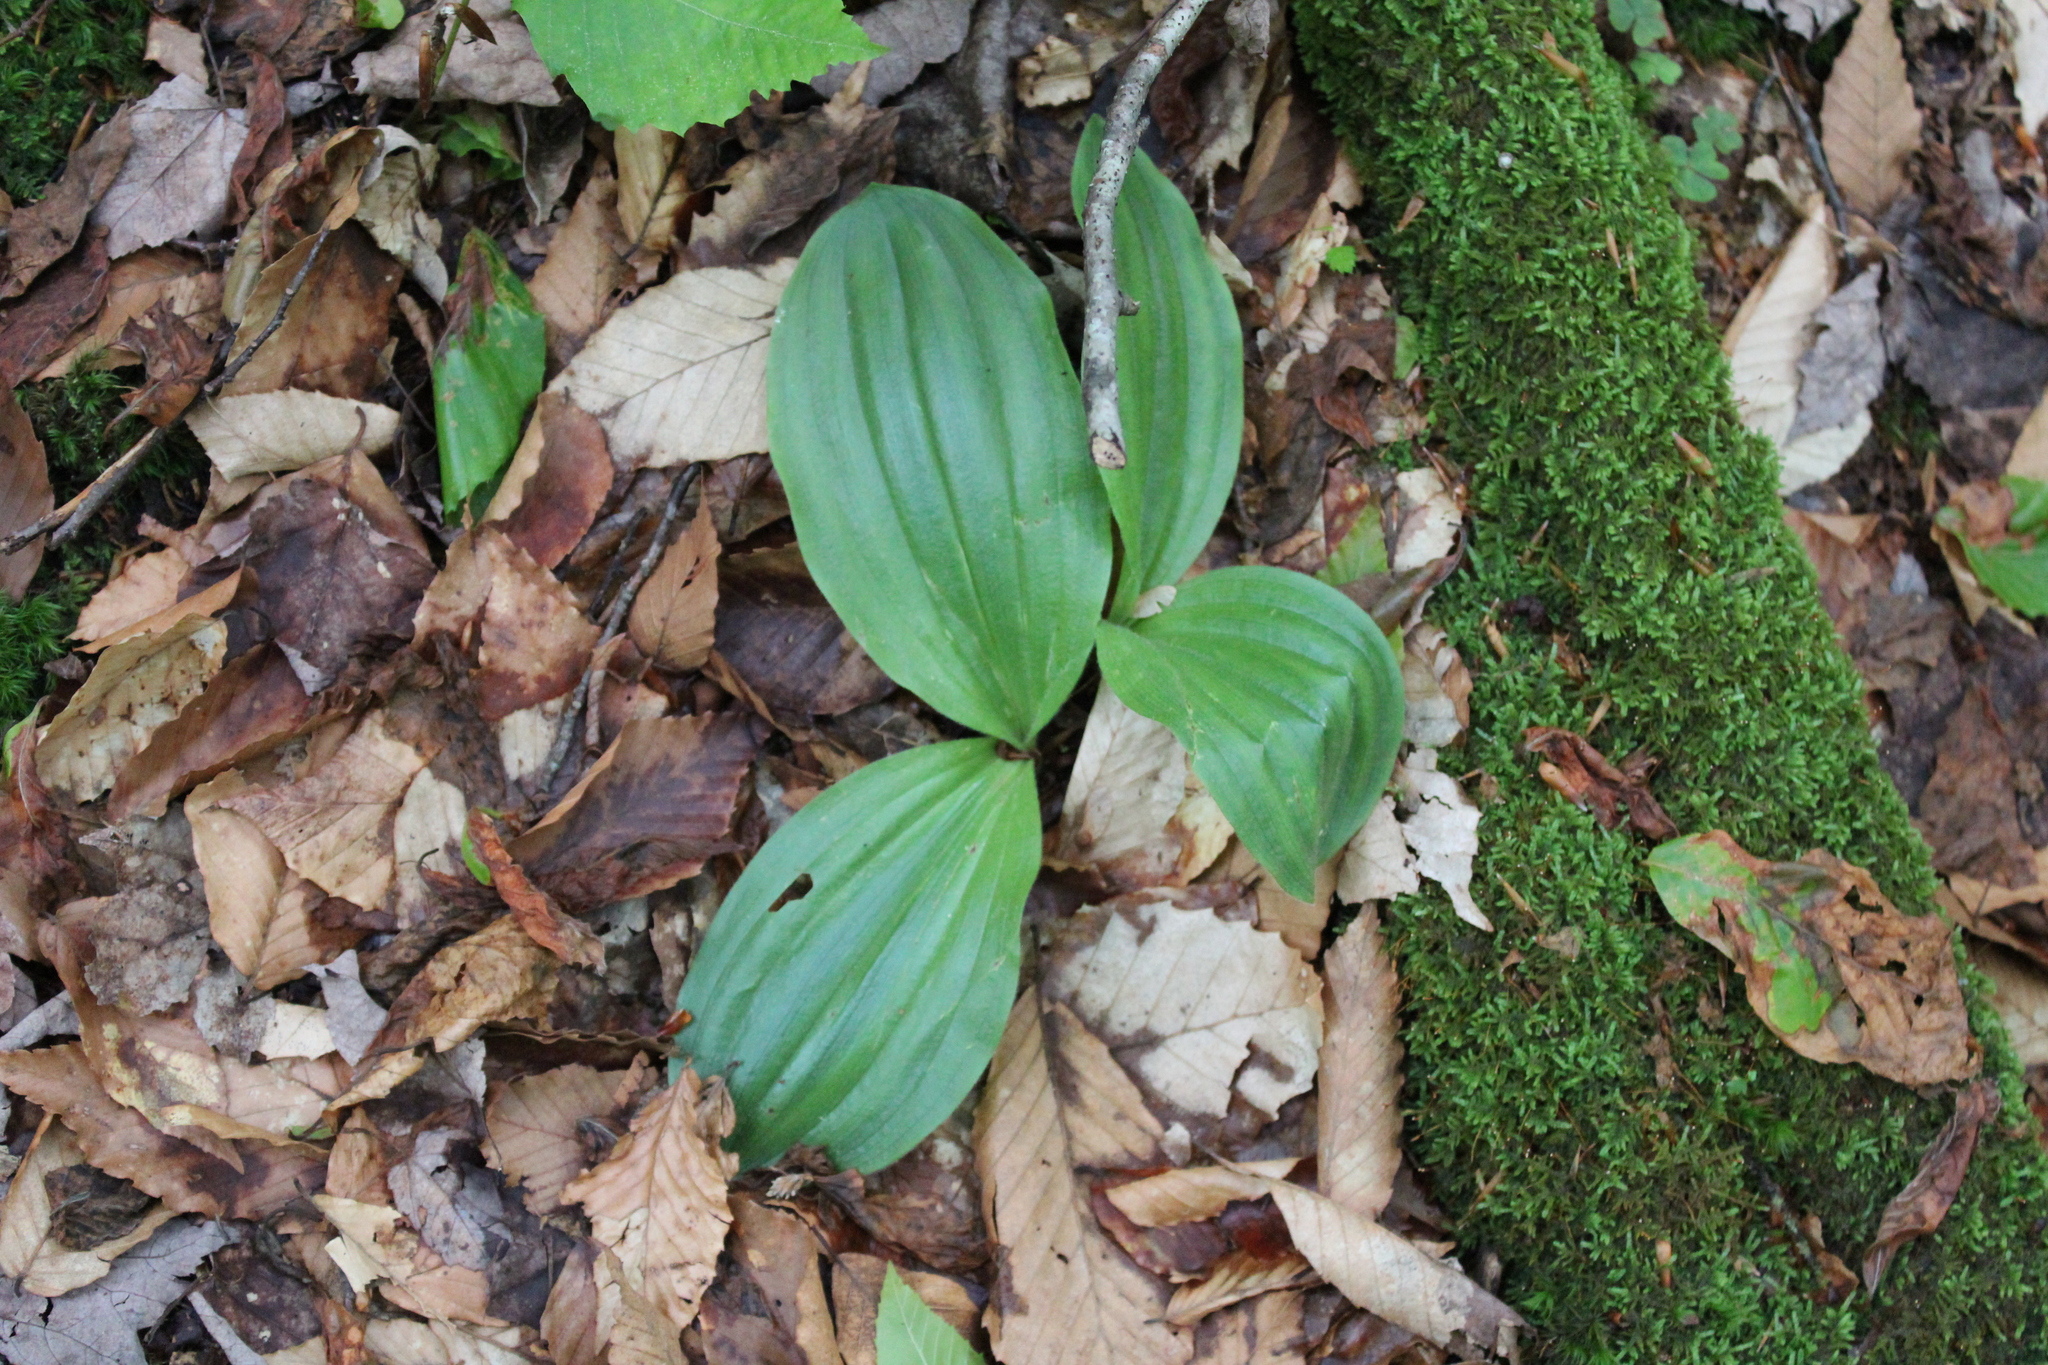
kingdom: Plantae
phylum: Tracheophyta
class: Liliopsida
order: Asparagales
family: Orchidaceae
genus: Cypripedium
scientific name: Cypripedium acaule
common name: Pink lady's-slipper
